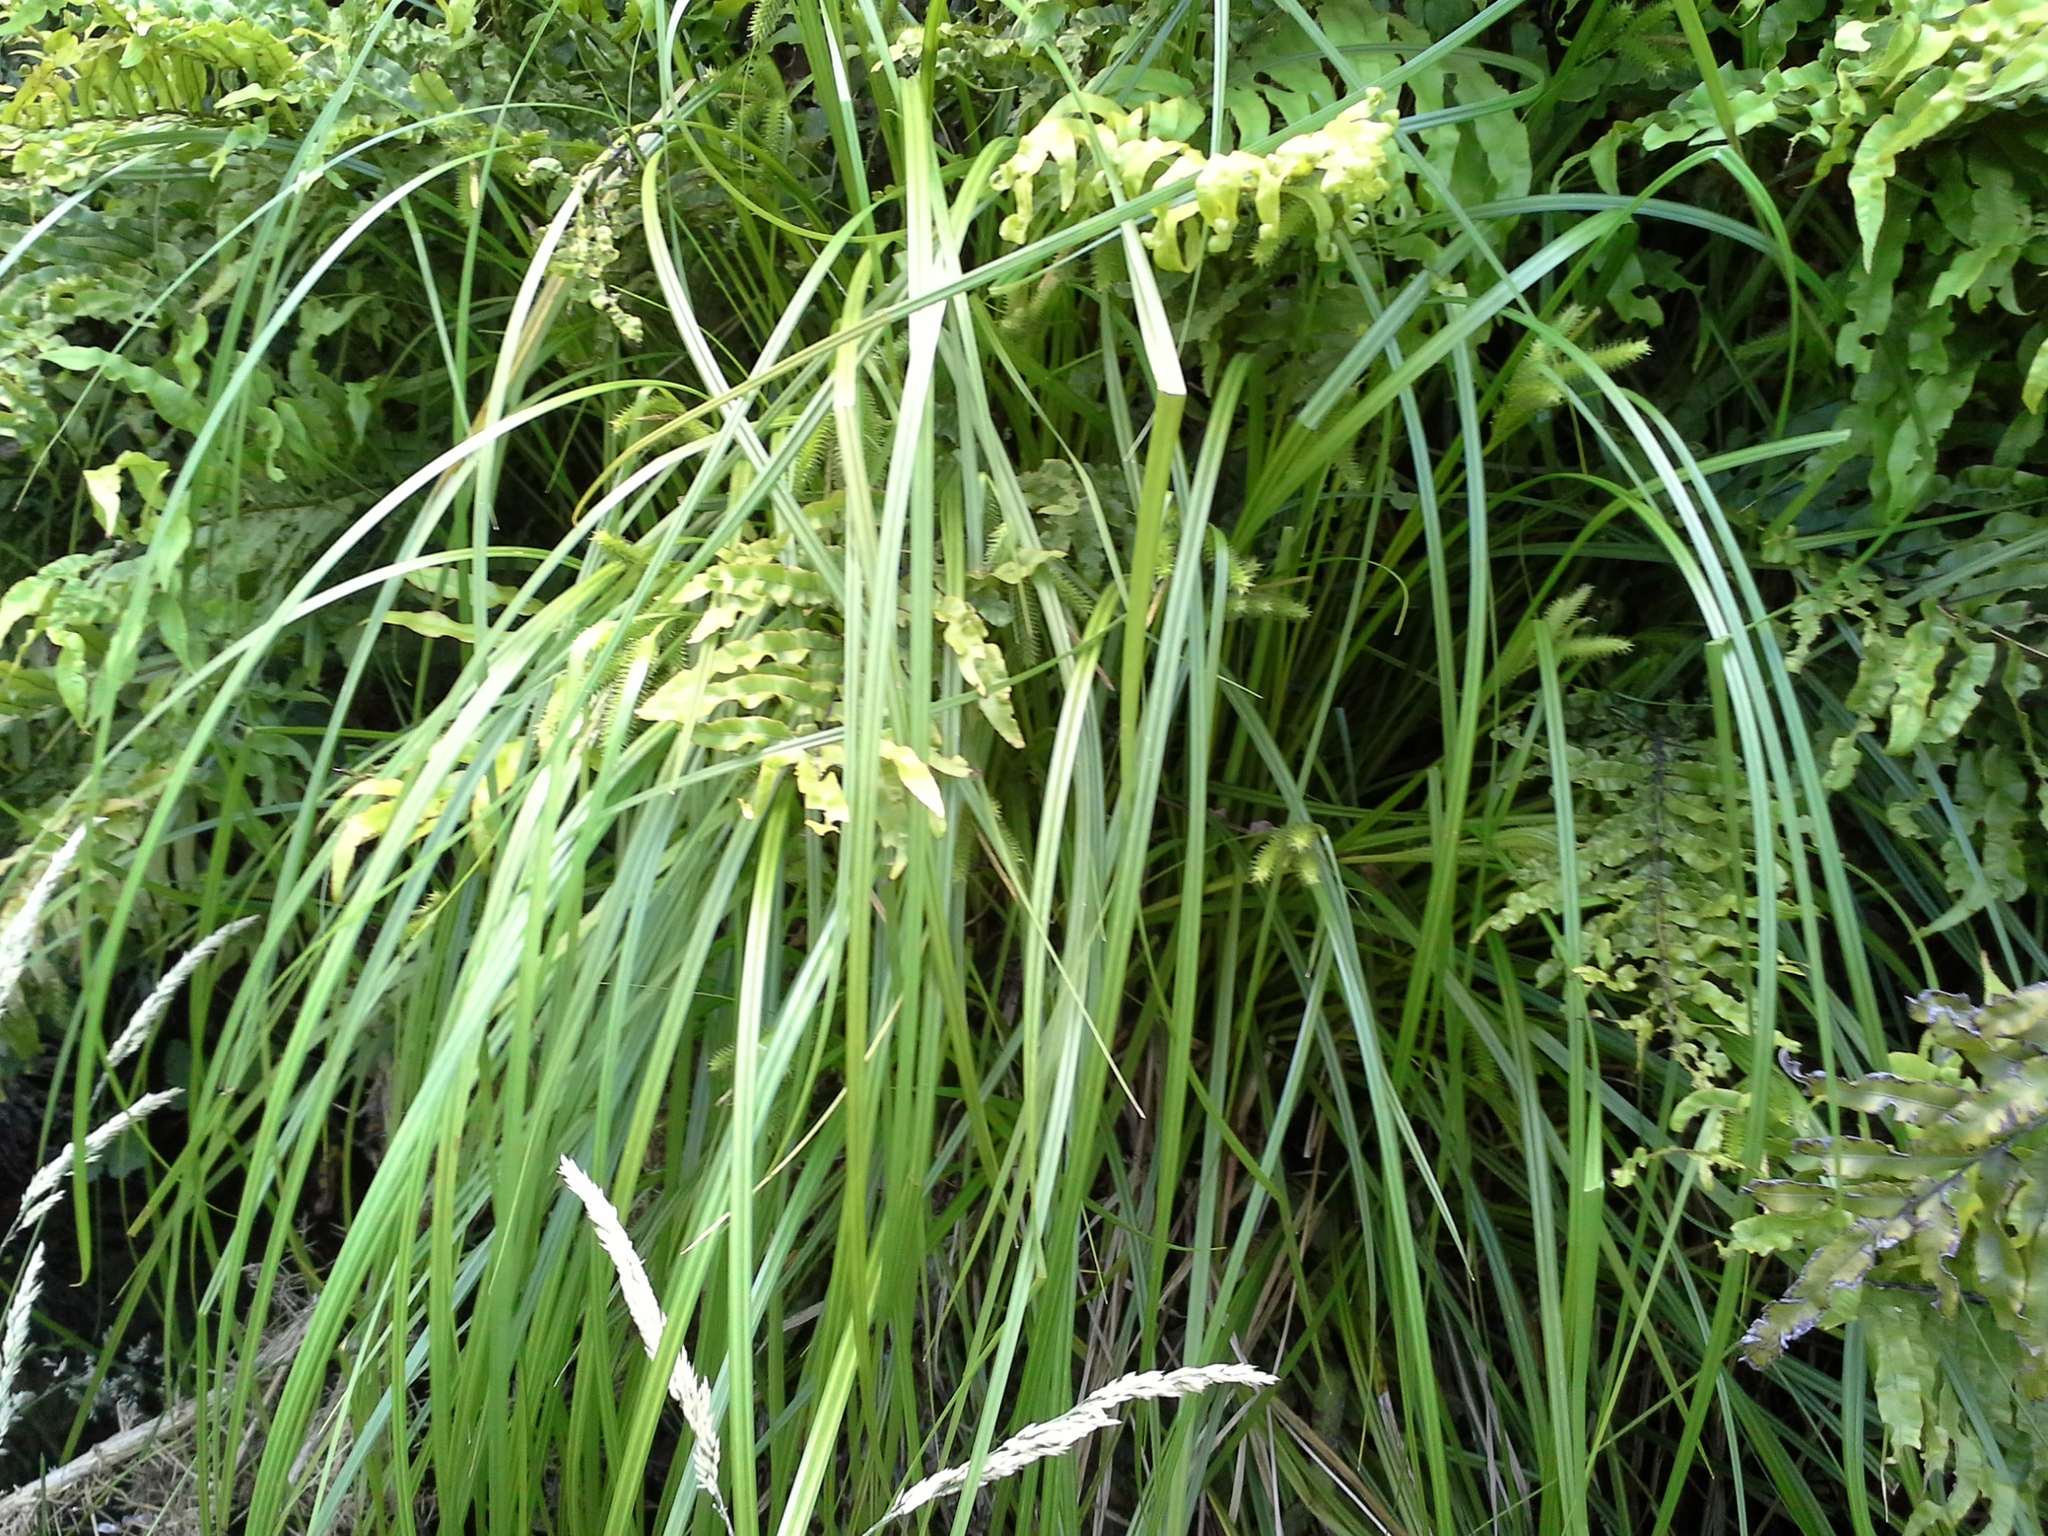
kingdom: Plantae
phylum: Tracheophyta
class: Liliopsida
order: Poales
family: Cyperaceae
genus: Carex
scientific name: Carex maorica
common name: Maori sedge
